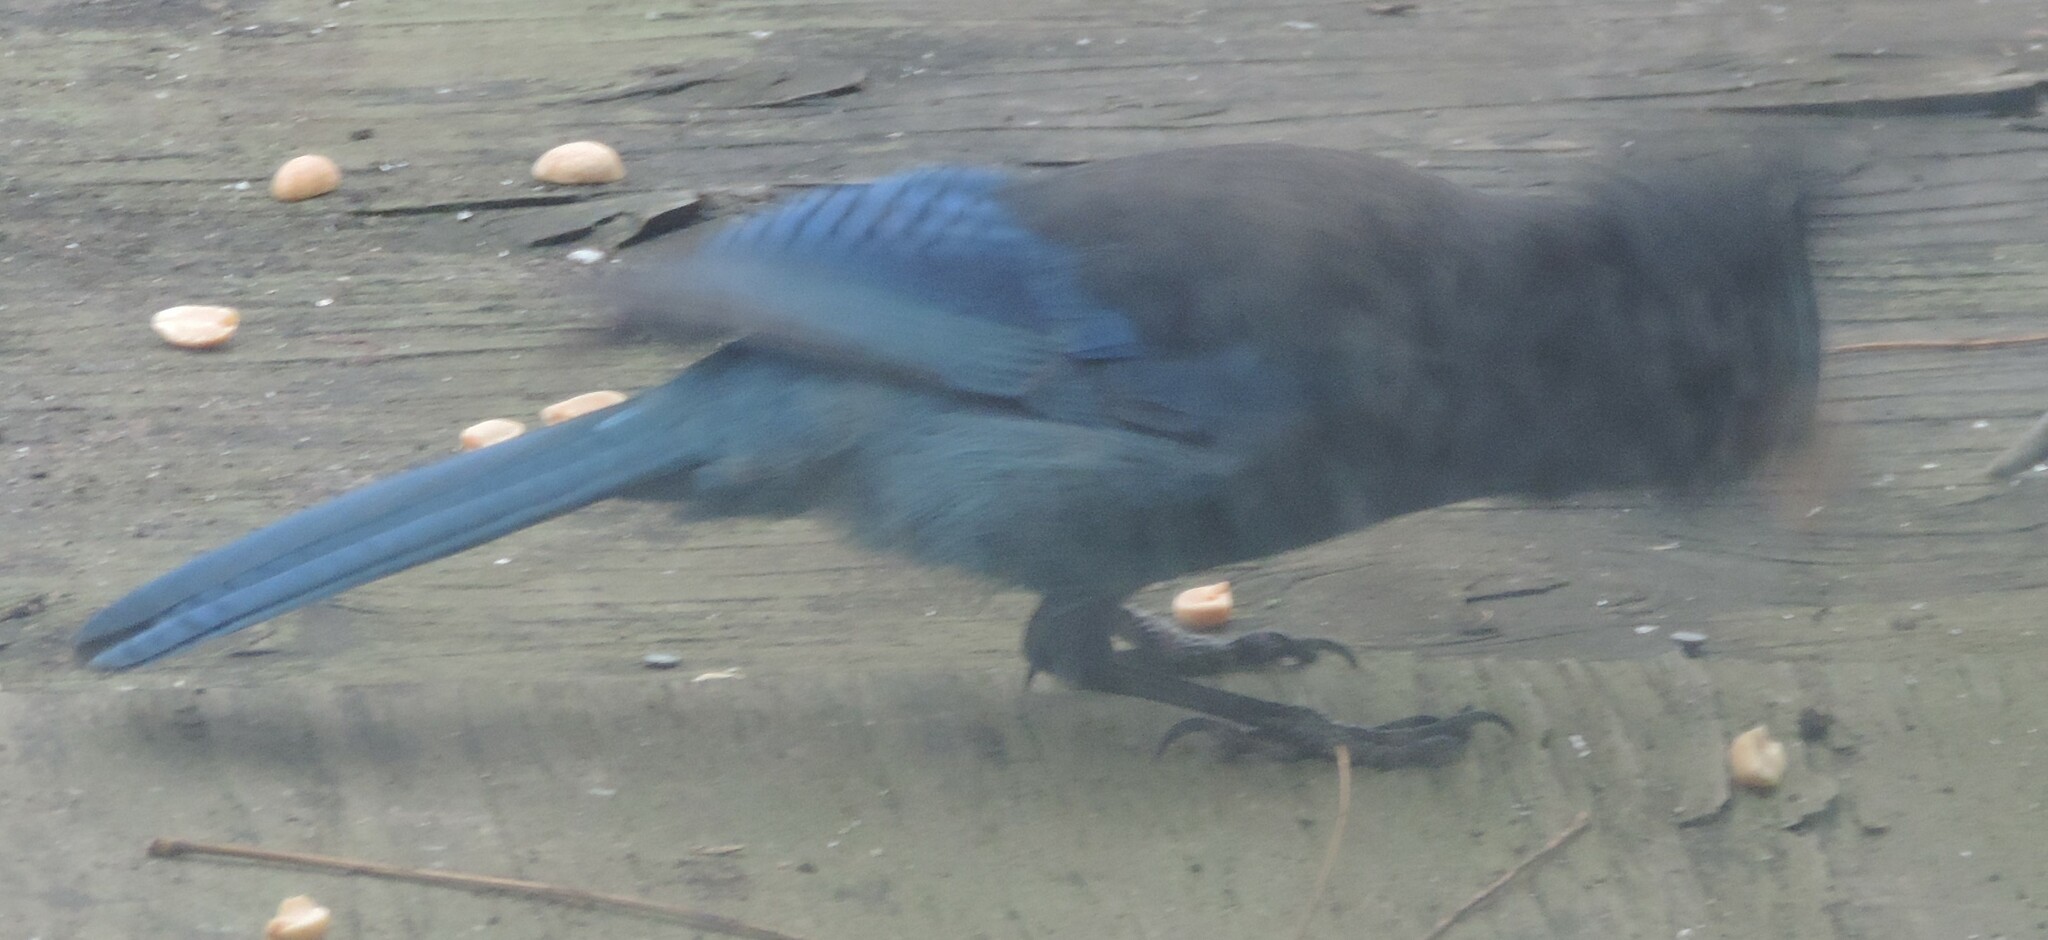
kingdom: Animalia
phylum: Chordata
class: Aves
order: Passeriformes
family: Corvidae
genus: Cyanocitta
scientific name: Cyanocitta stelleri
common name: Steller's jay
